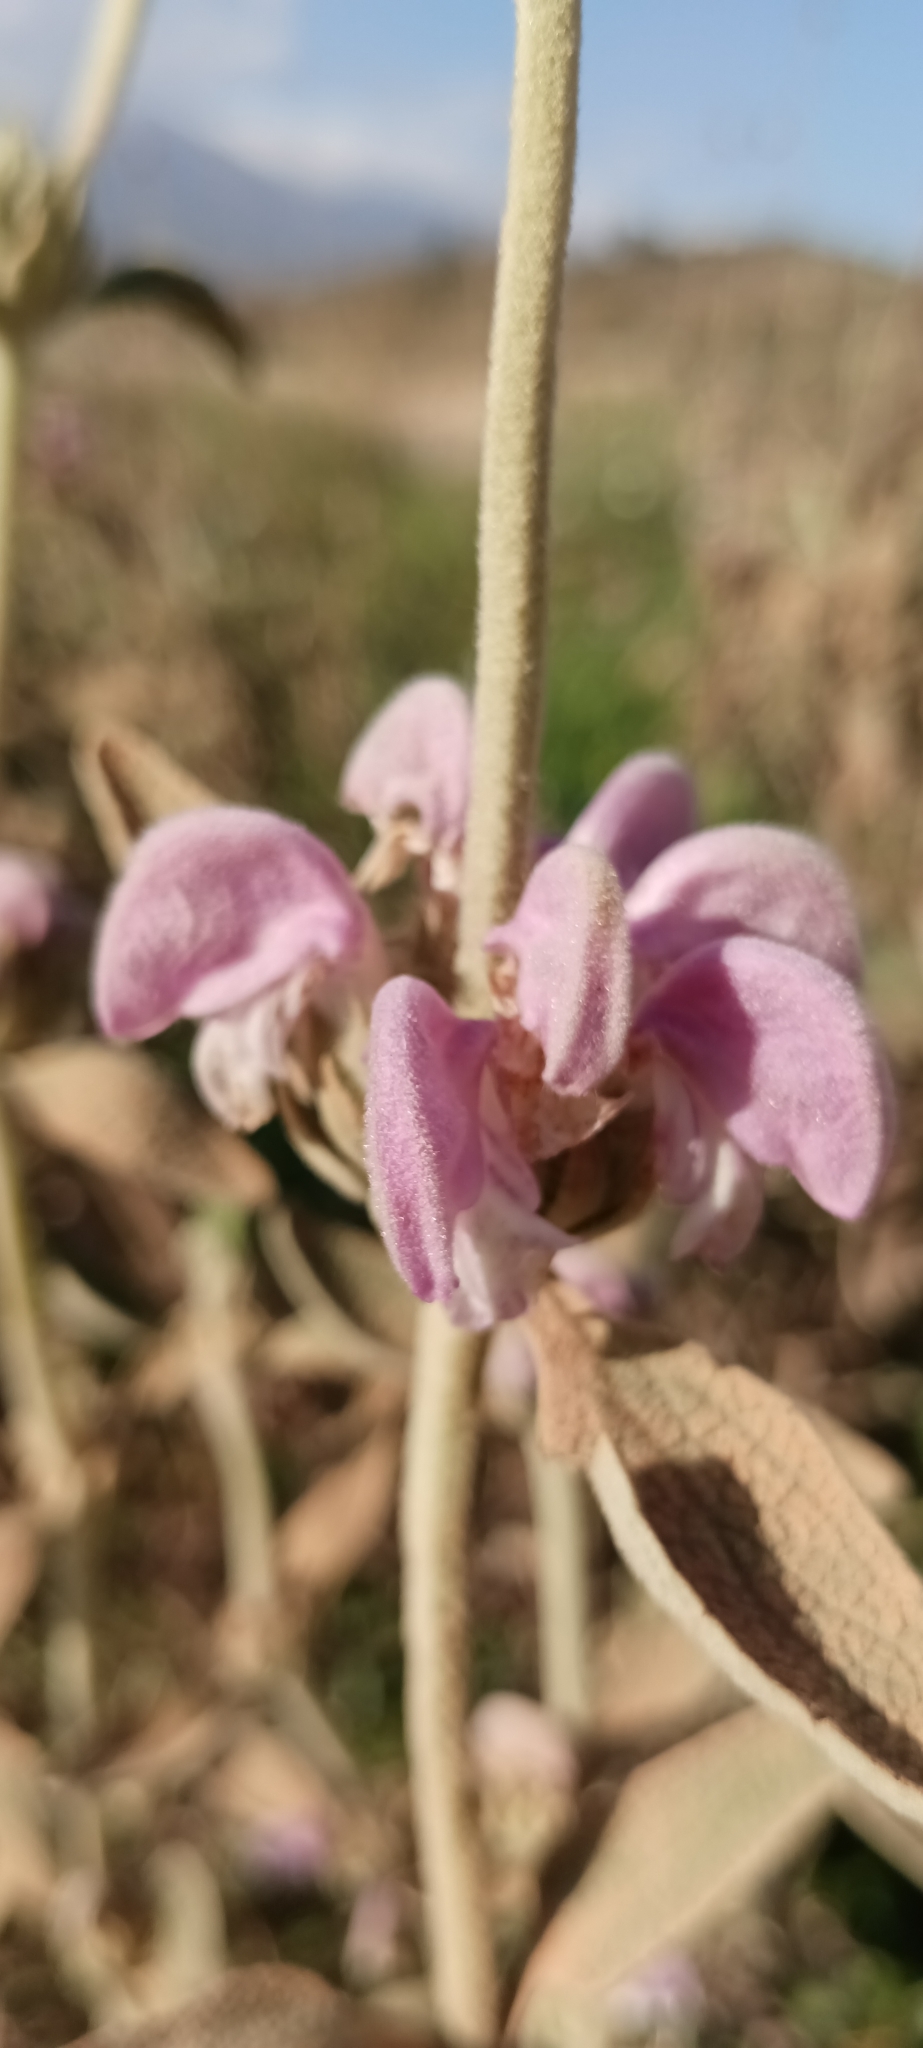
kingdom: Plantae
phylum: Tracheophyta
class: Magnoliopsida
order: Lamiales
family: Lamiaceae
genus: Phlomis
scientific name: Phlomis purpurea
